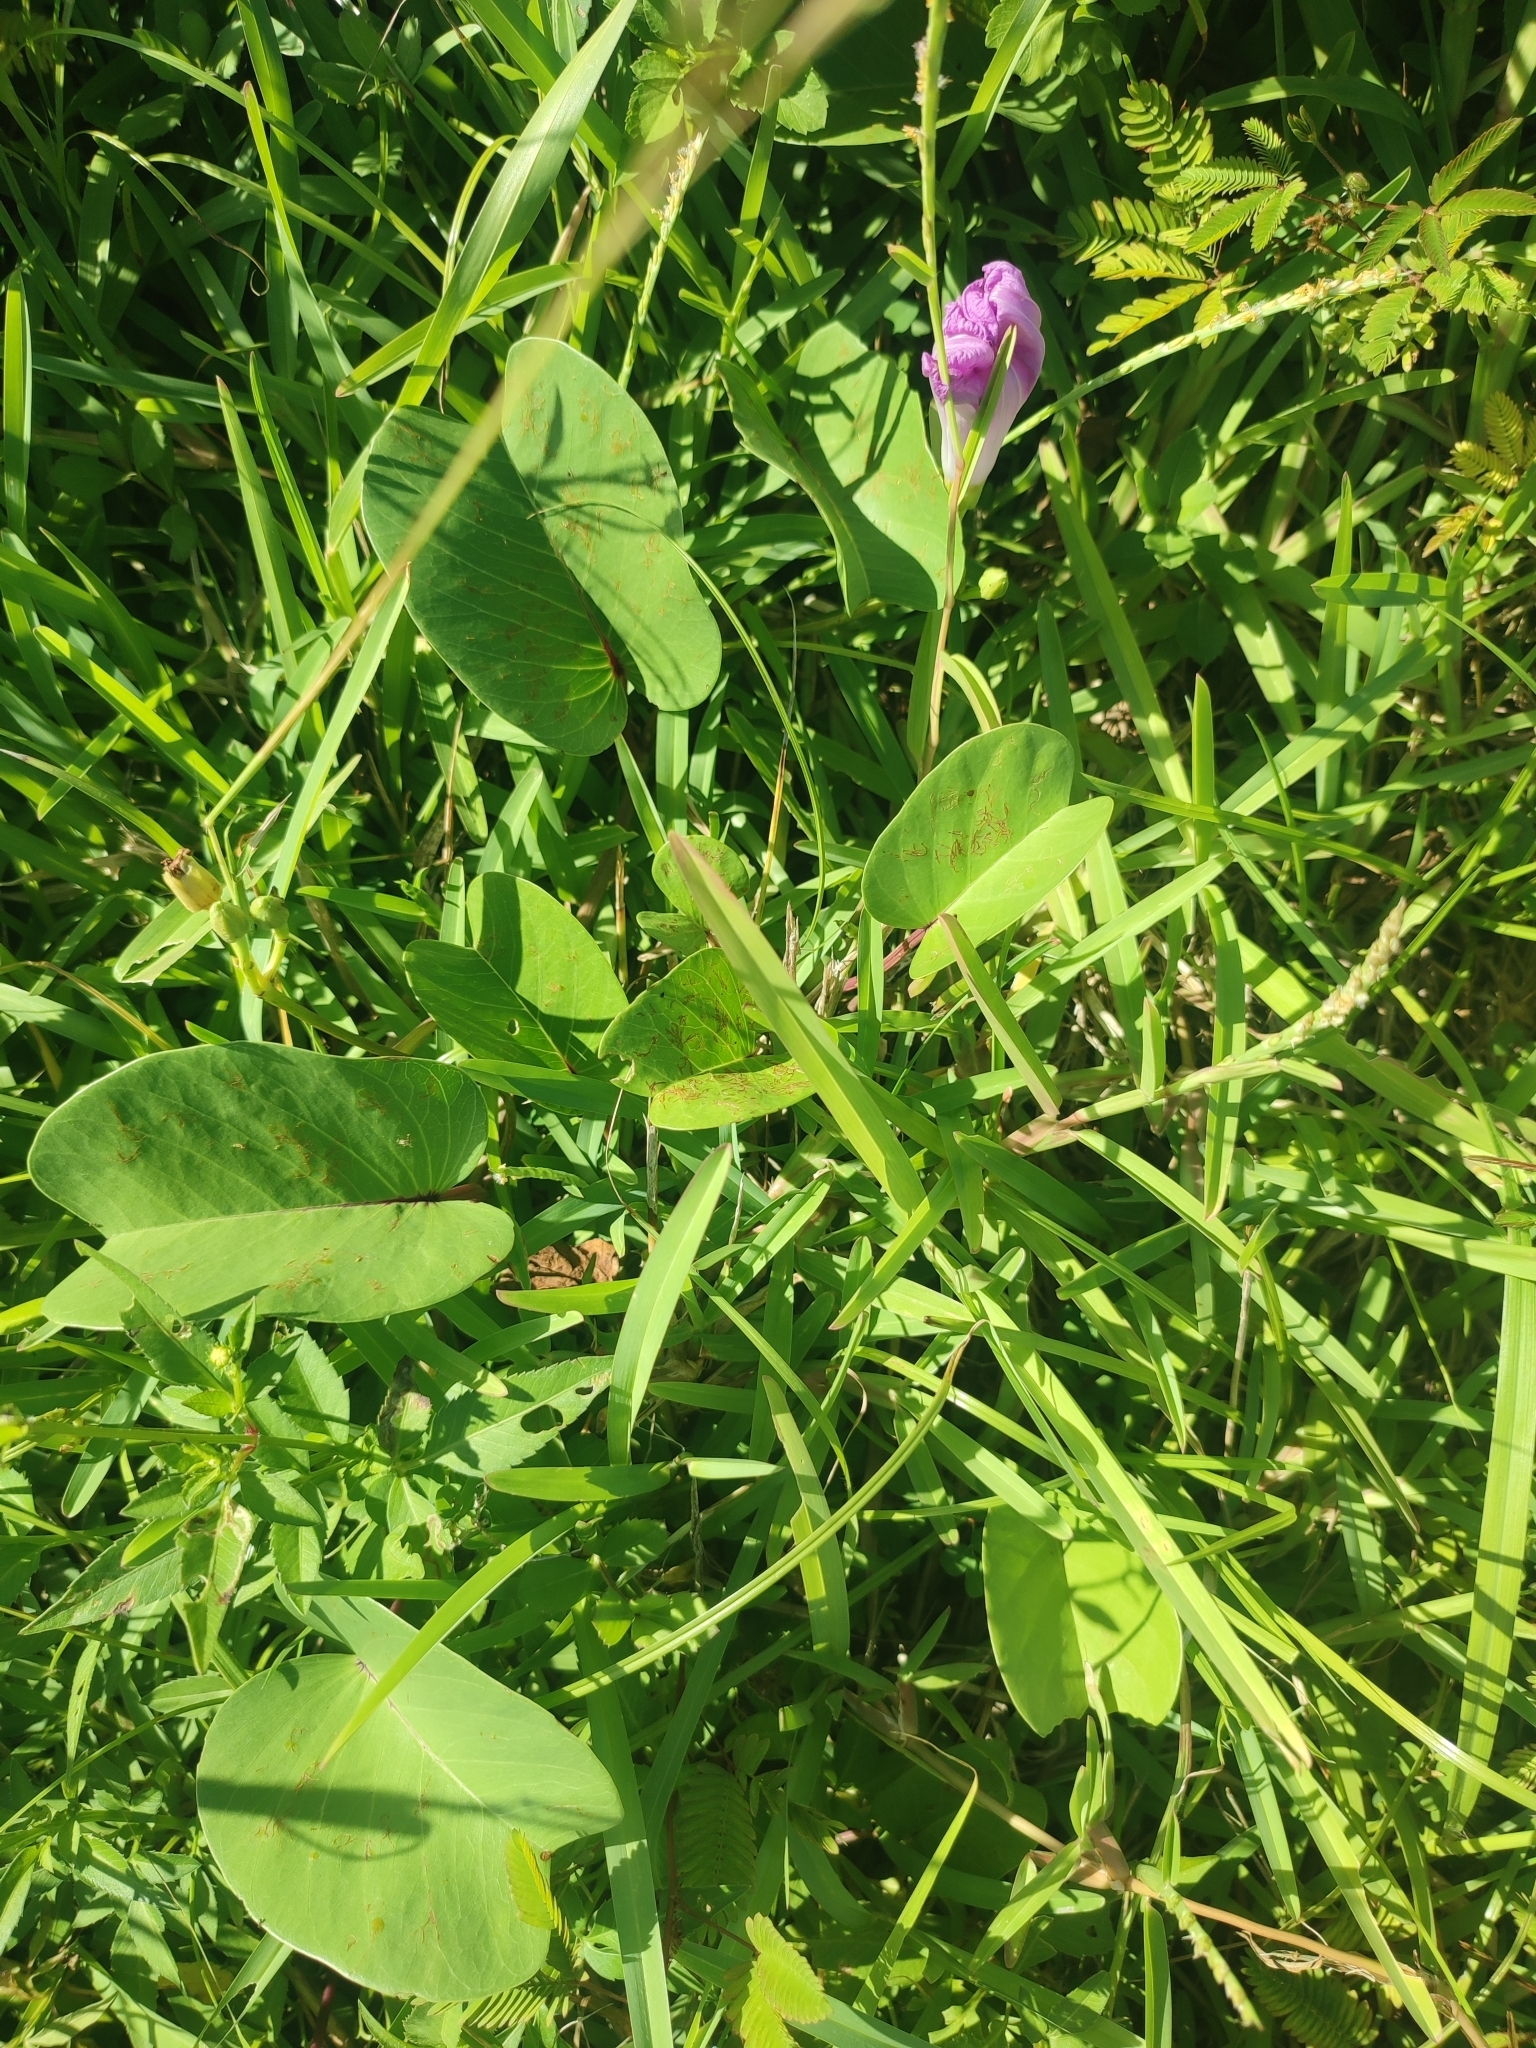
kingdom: Plantae
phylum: Tracheophyta
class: Magnoliopsida
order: Solanales
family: Convolvulaceae
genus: Ipomoea
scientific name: Ipomoea pes-caprae
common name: Beach morning glory
